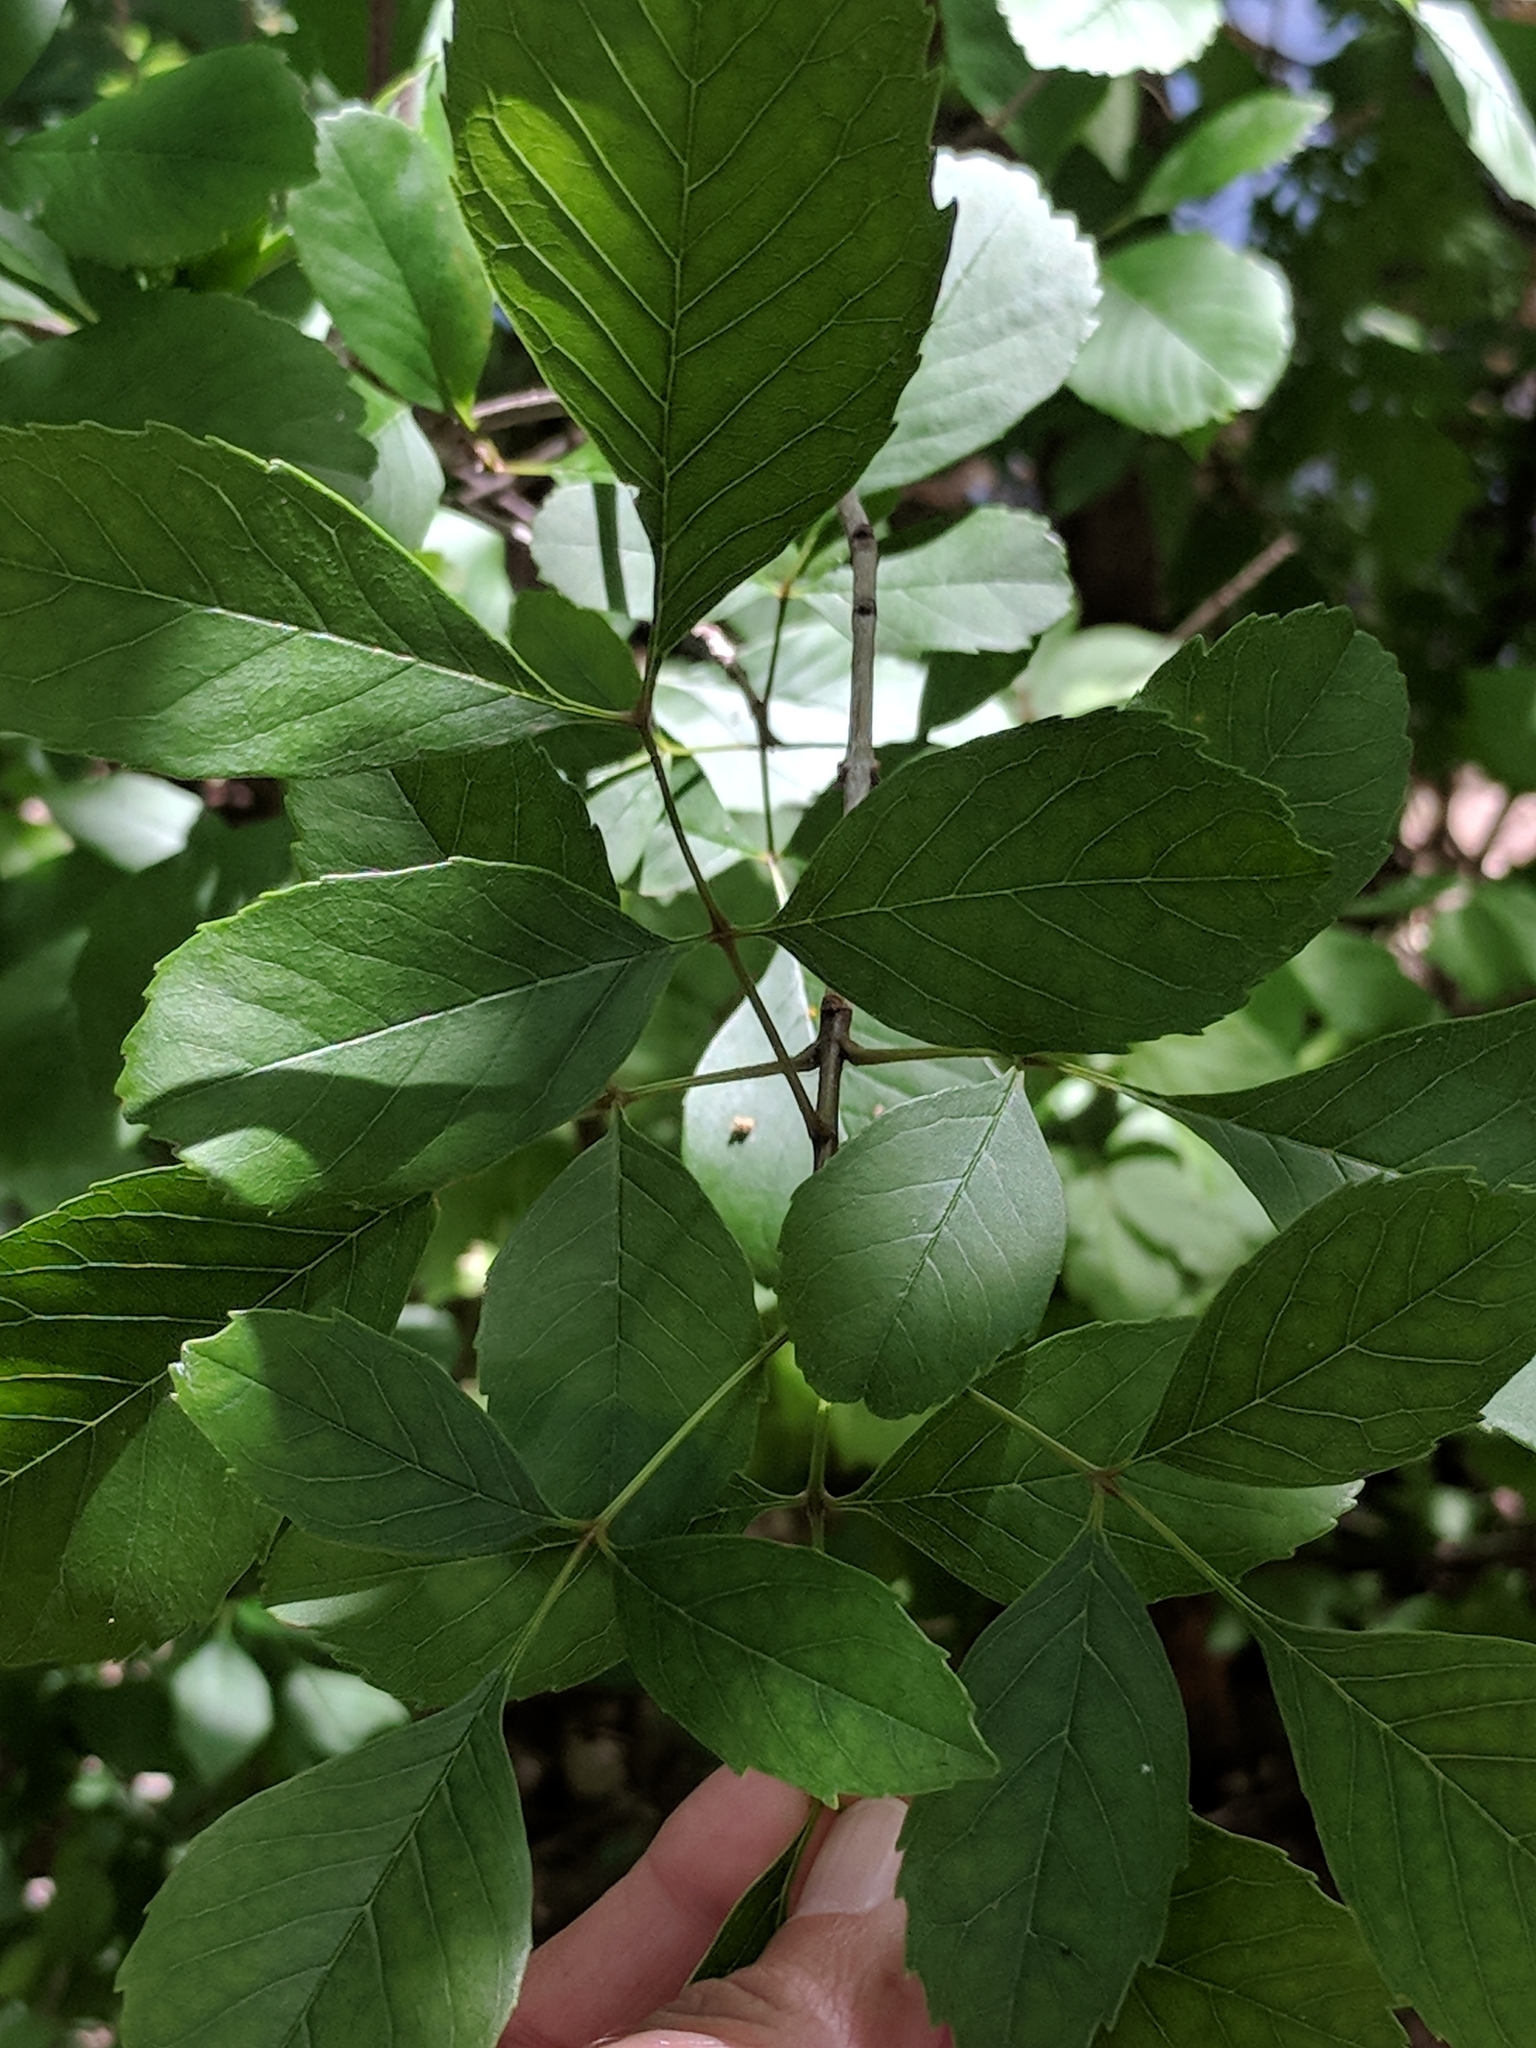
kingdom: Plantae
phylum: Tracheophyta
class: Magnoliopsida
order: Lamiales
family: Oleaceae
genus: Fraxinus
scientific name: Fraxinus albicans
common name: Texas ash
